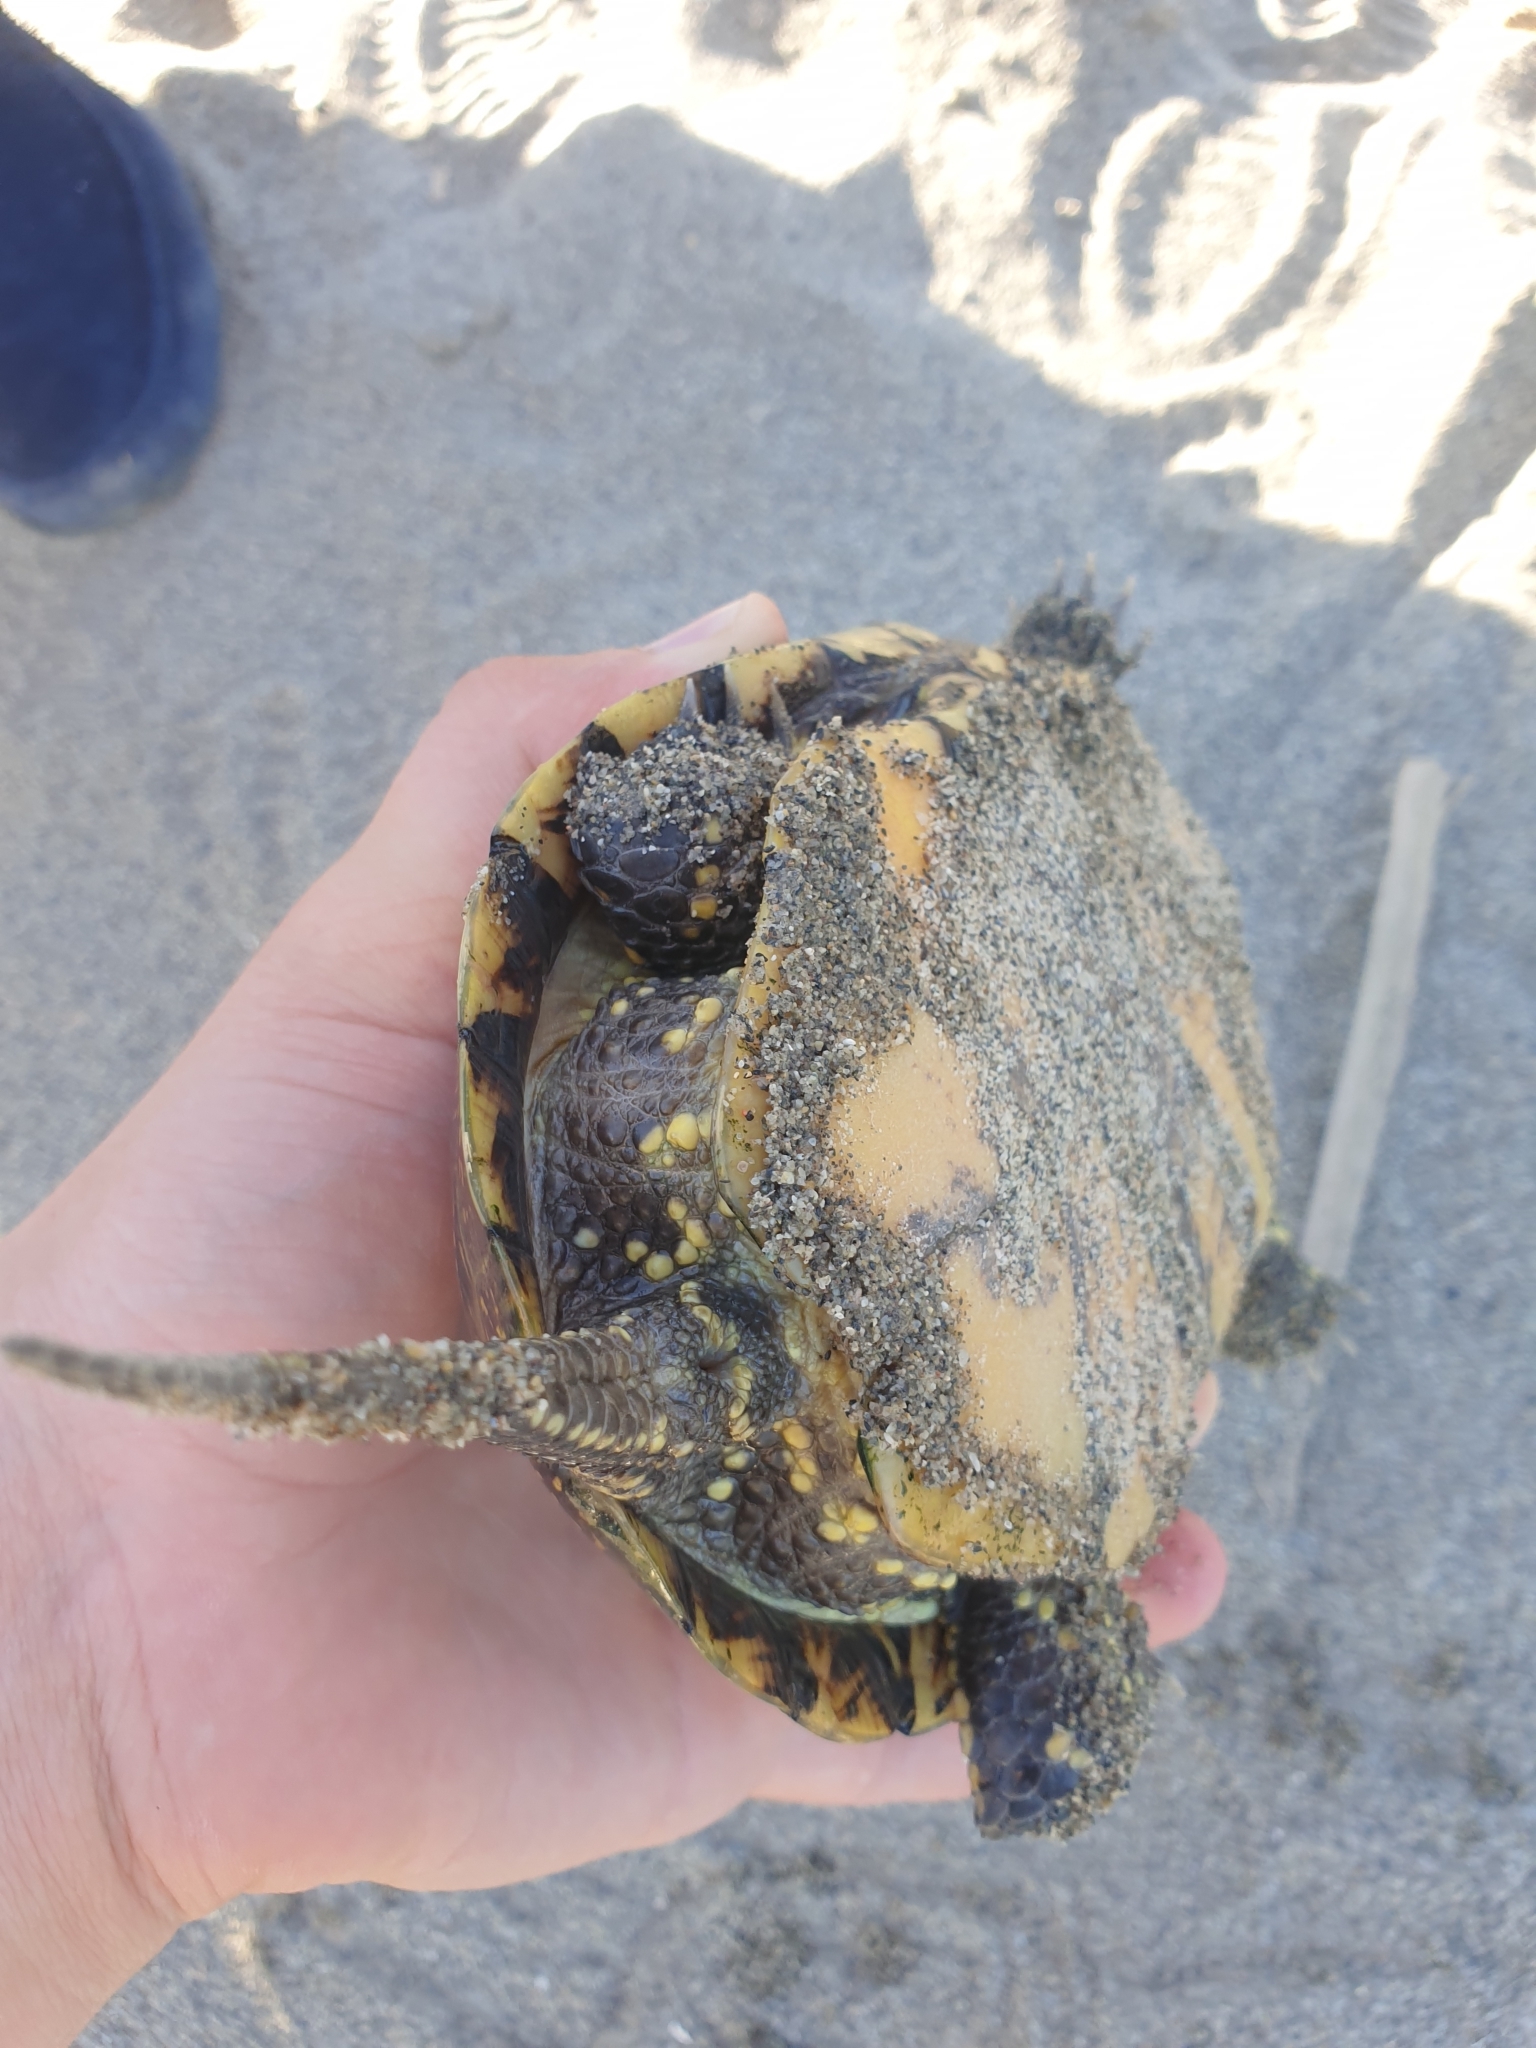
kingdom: Animalia
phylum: Chordata
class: Testudines
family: Emydidae
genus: Emys
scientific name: Emys orbicularis
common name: European pond turtle
